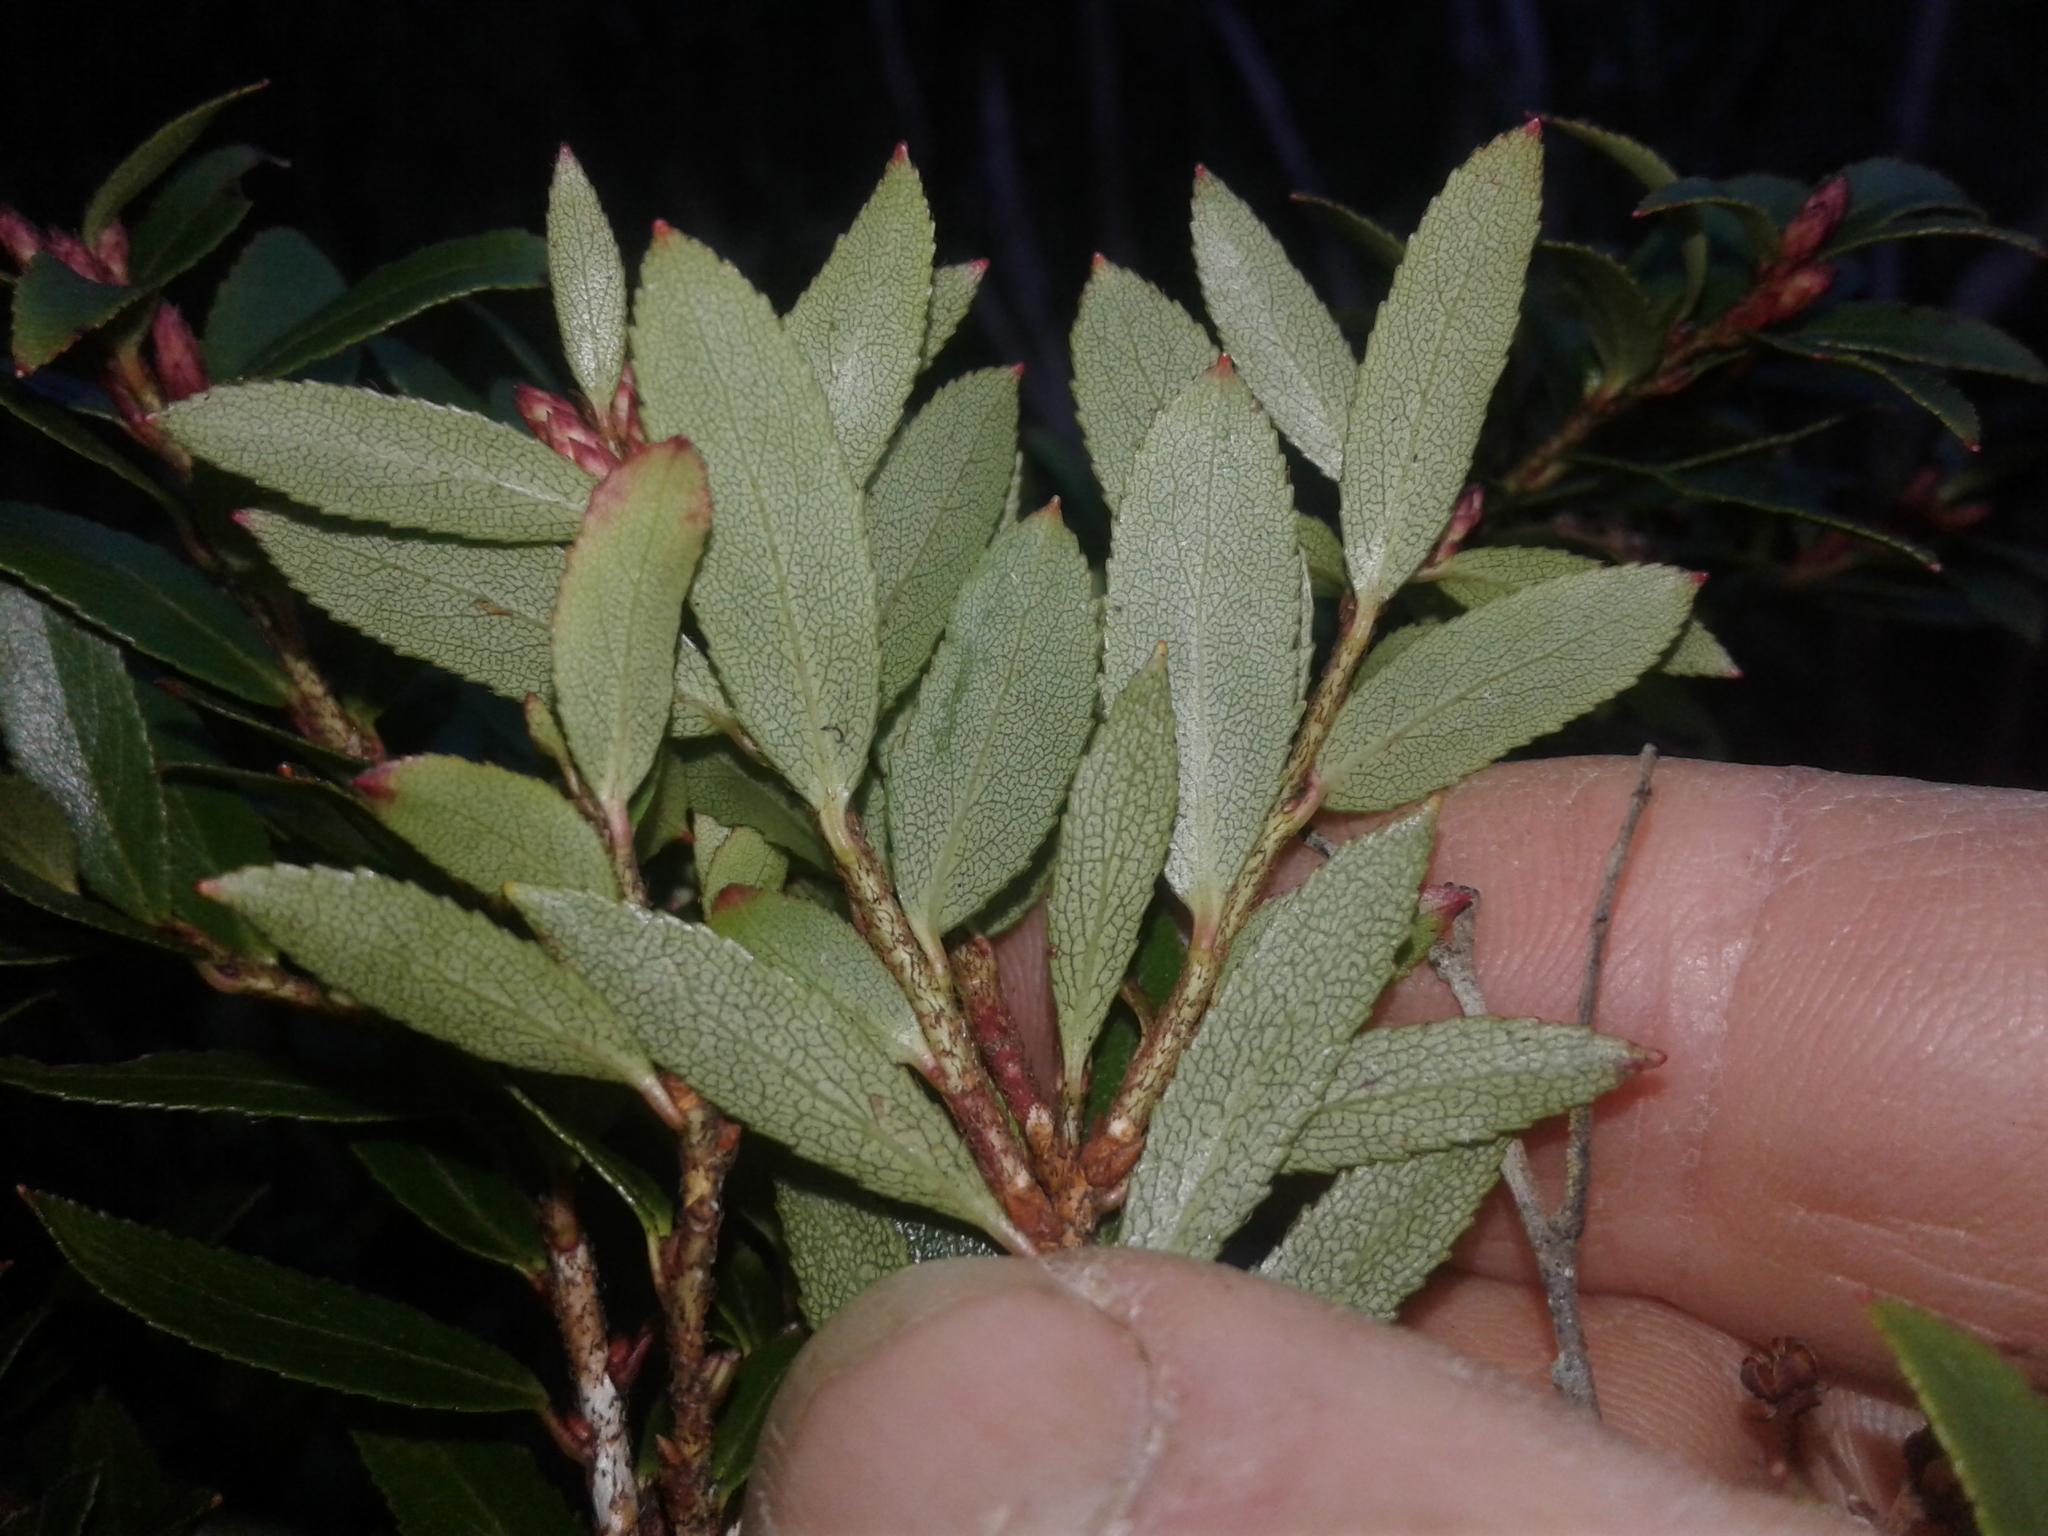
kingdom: Plantae
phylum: Tracheophyta
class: Magnoliopsida
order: Ericales
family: Ericaceae
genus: Gaultheria
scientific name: Gaultheria crassa
